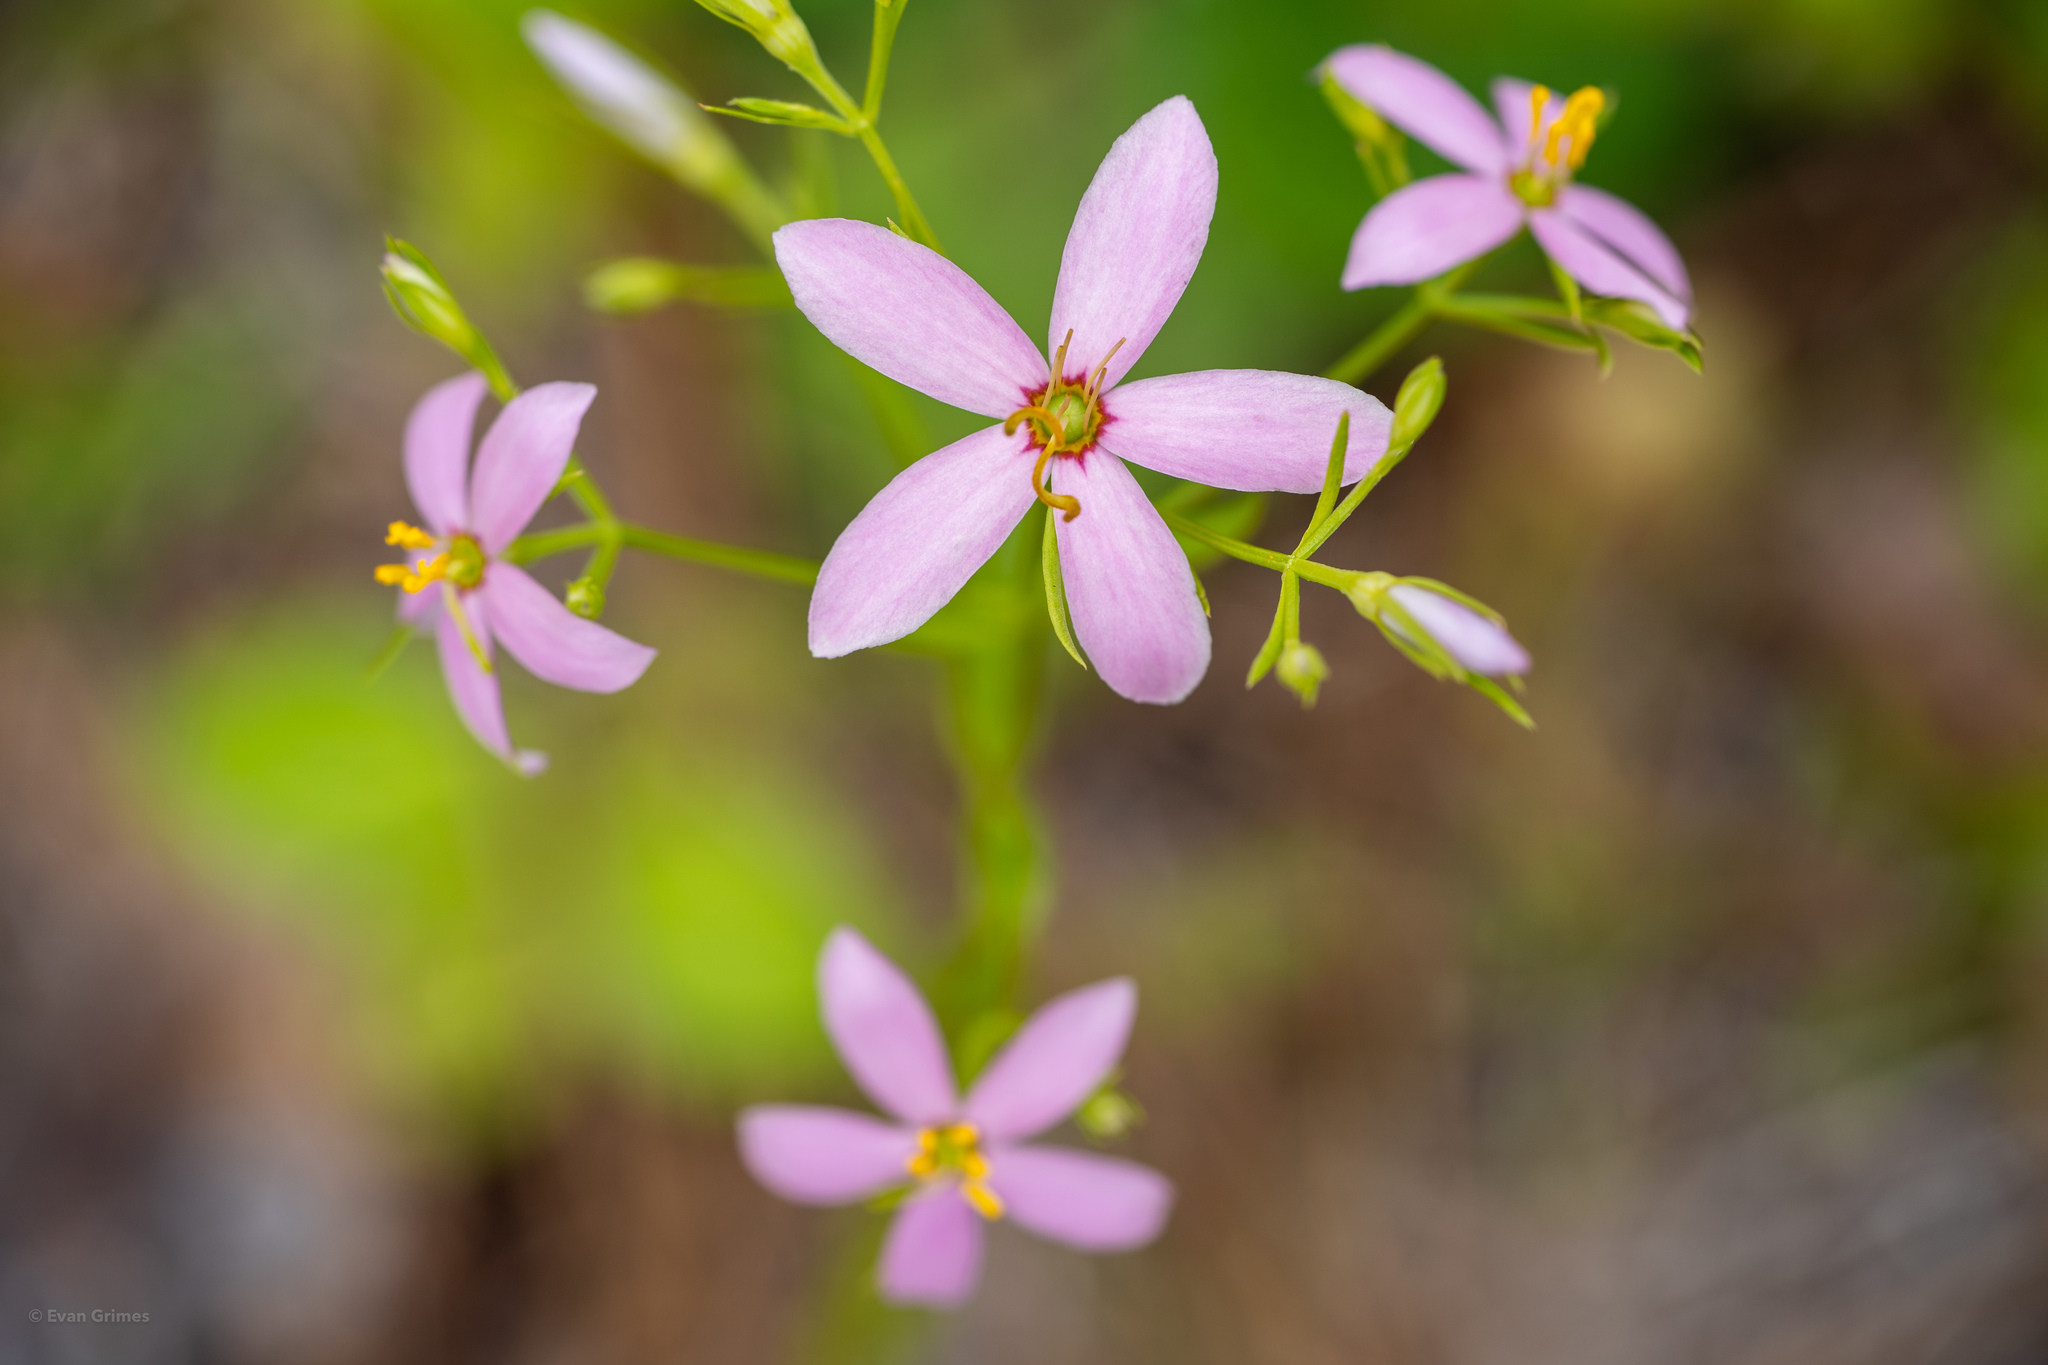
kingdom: Plantae
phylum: Tracheophyta
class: Magnoliopsida
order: Gentianales
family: Gentianaceae
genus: Sabatia
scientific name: Sabatia angularis
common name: Rose-pink
